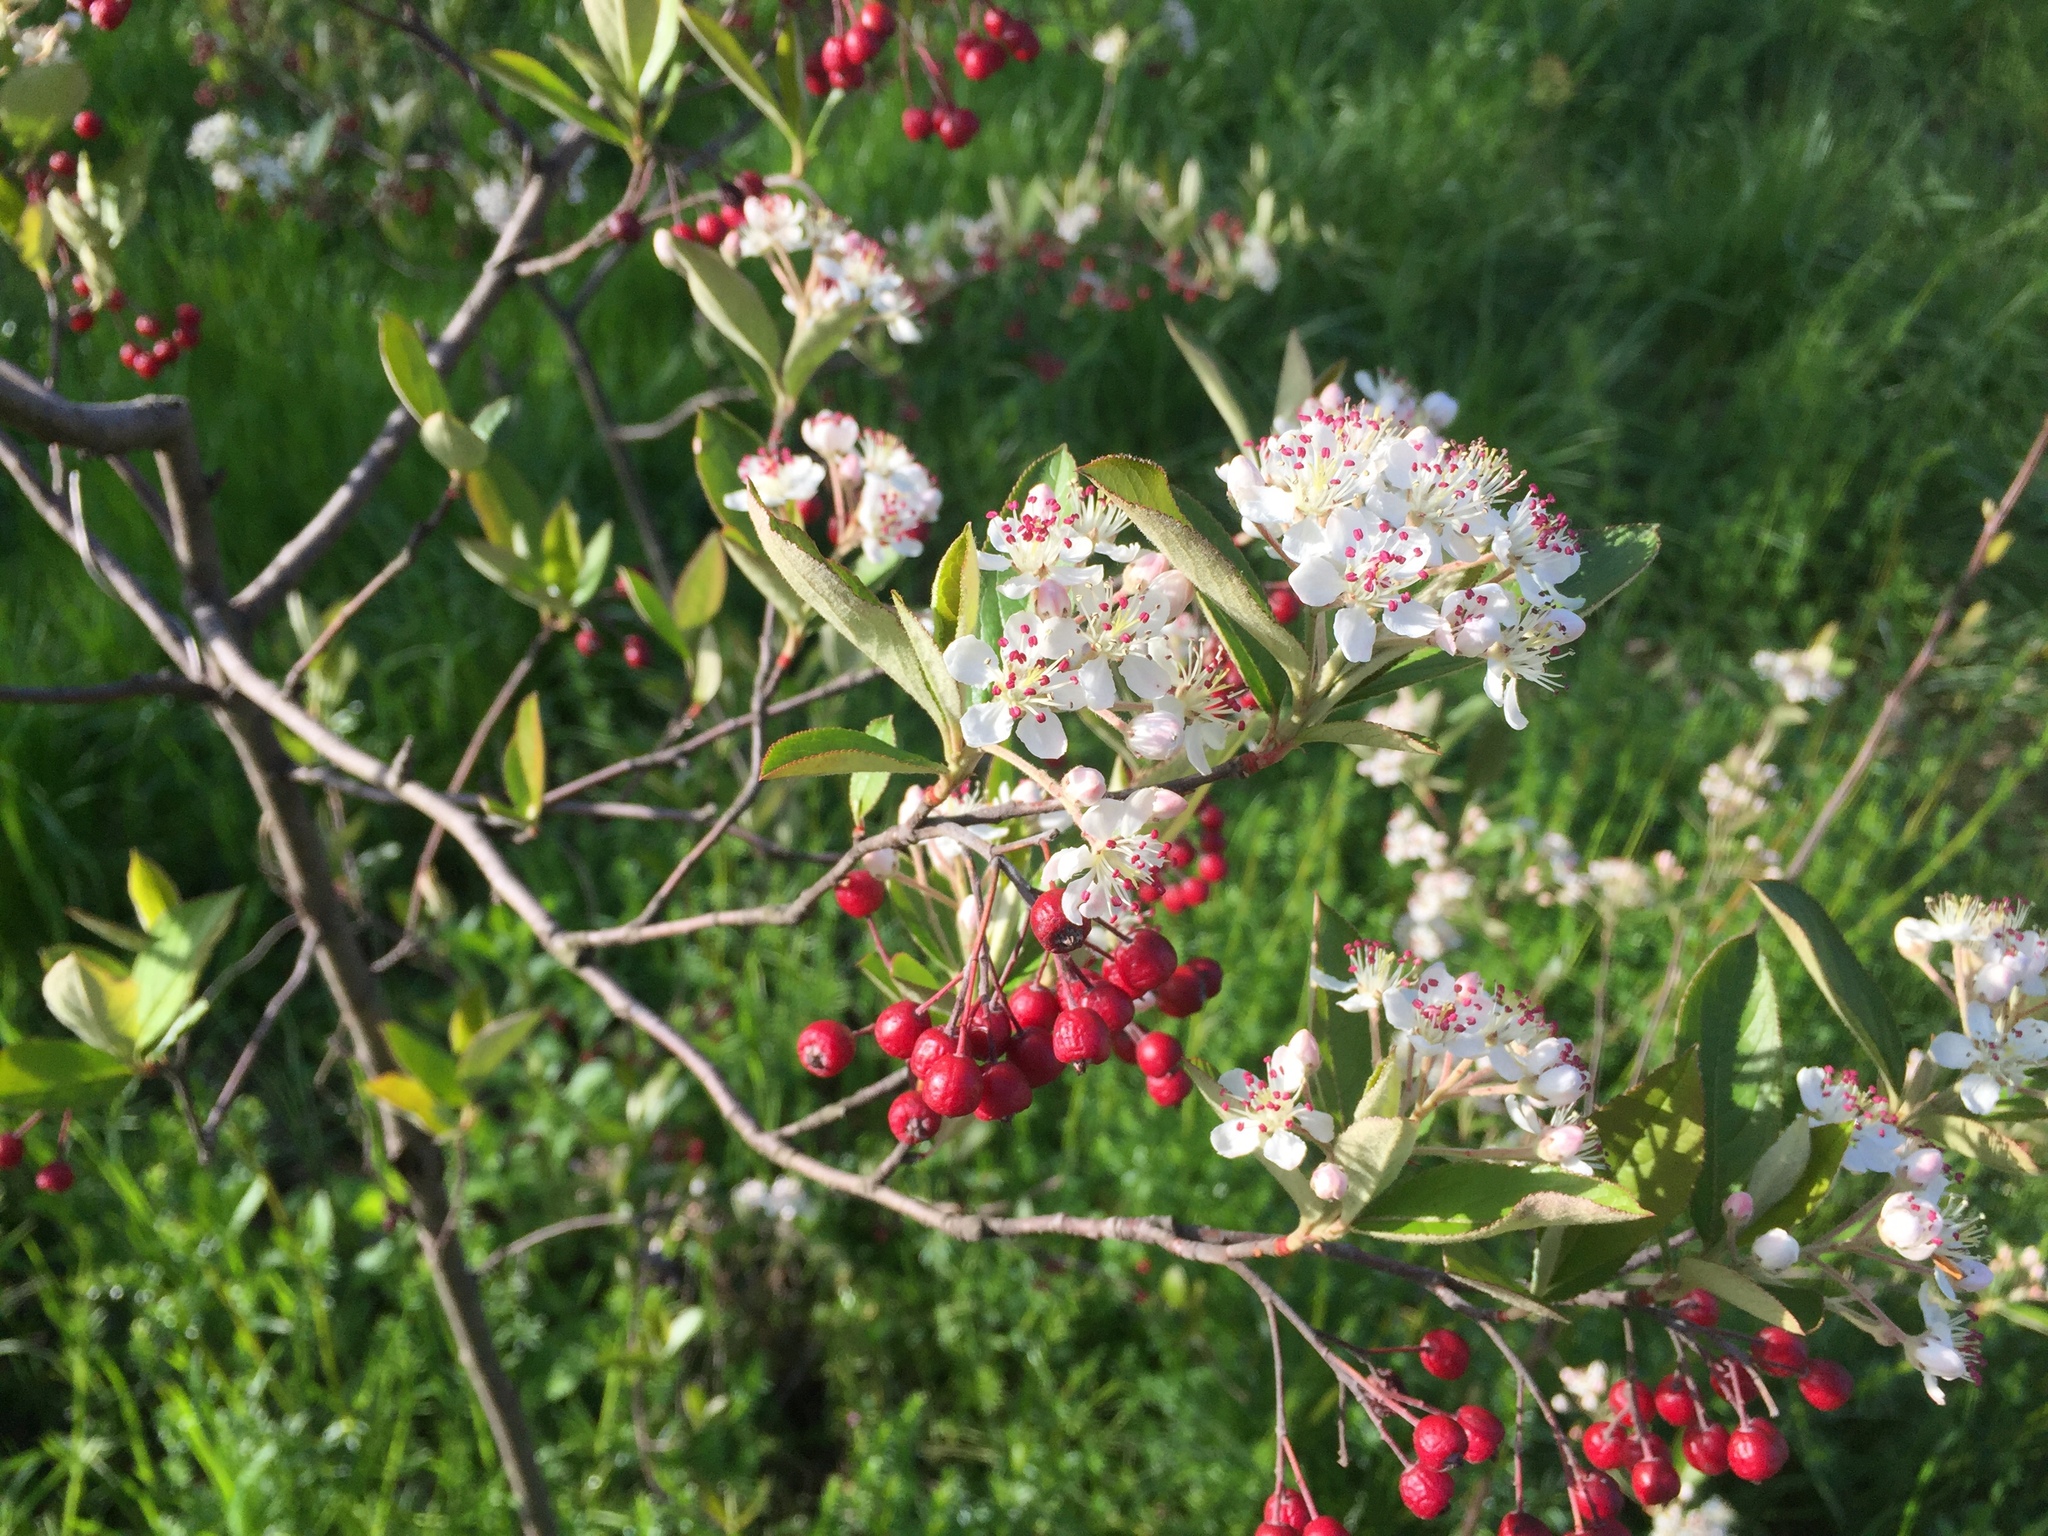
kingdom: Plantae
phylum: Tracheophyta
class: Magnoliopsida
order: Rosales
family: Rosaceae
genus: Aronia
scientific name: Aronia arbutifolia
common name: Red chokeberry
